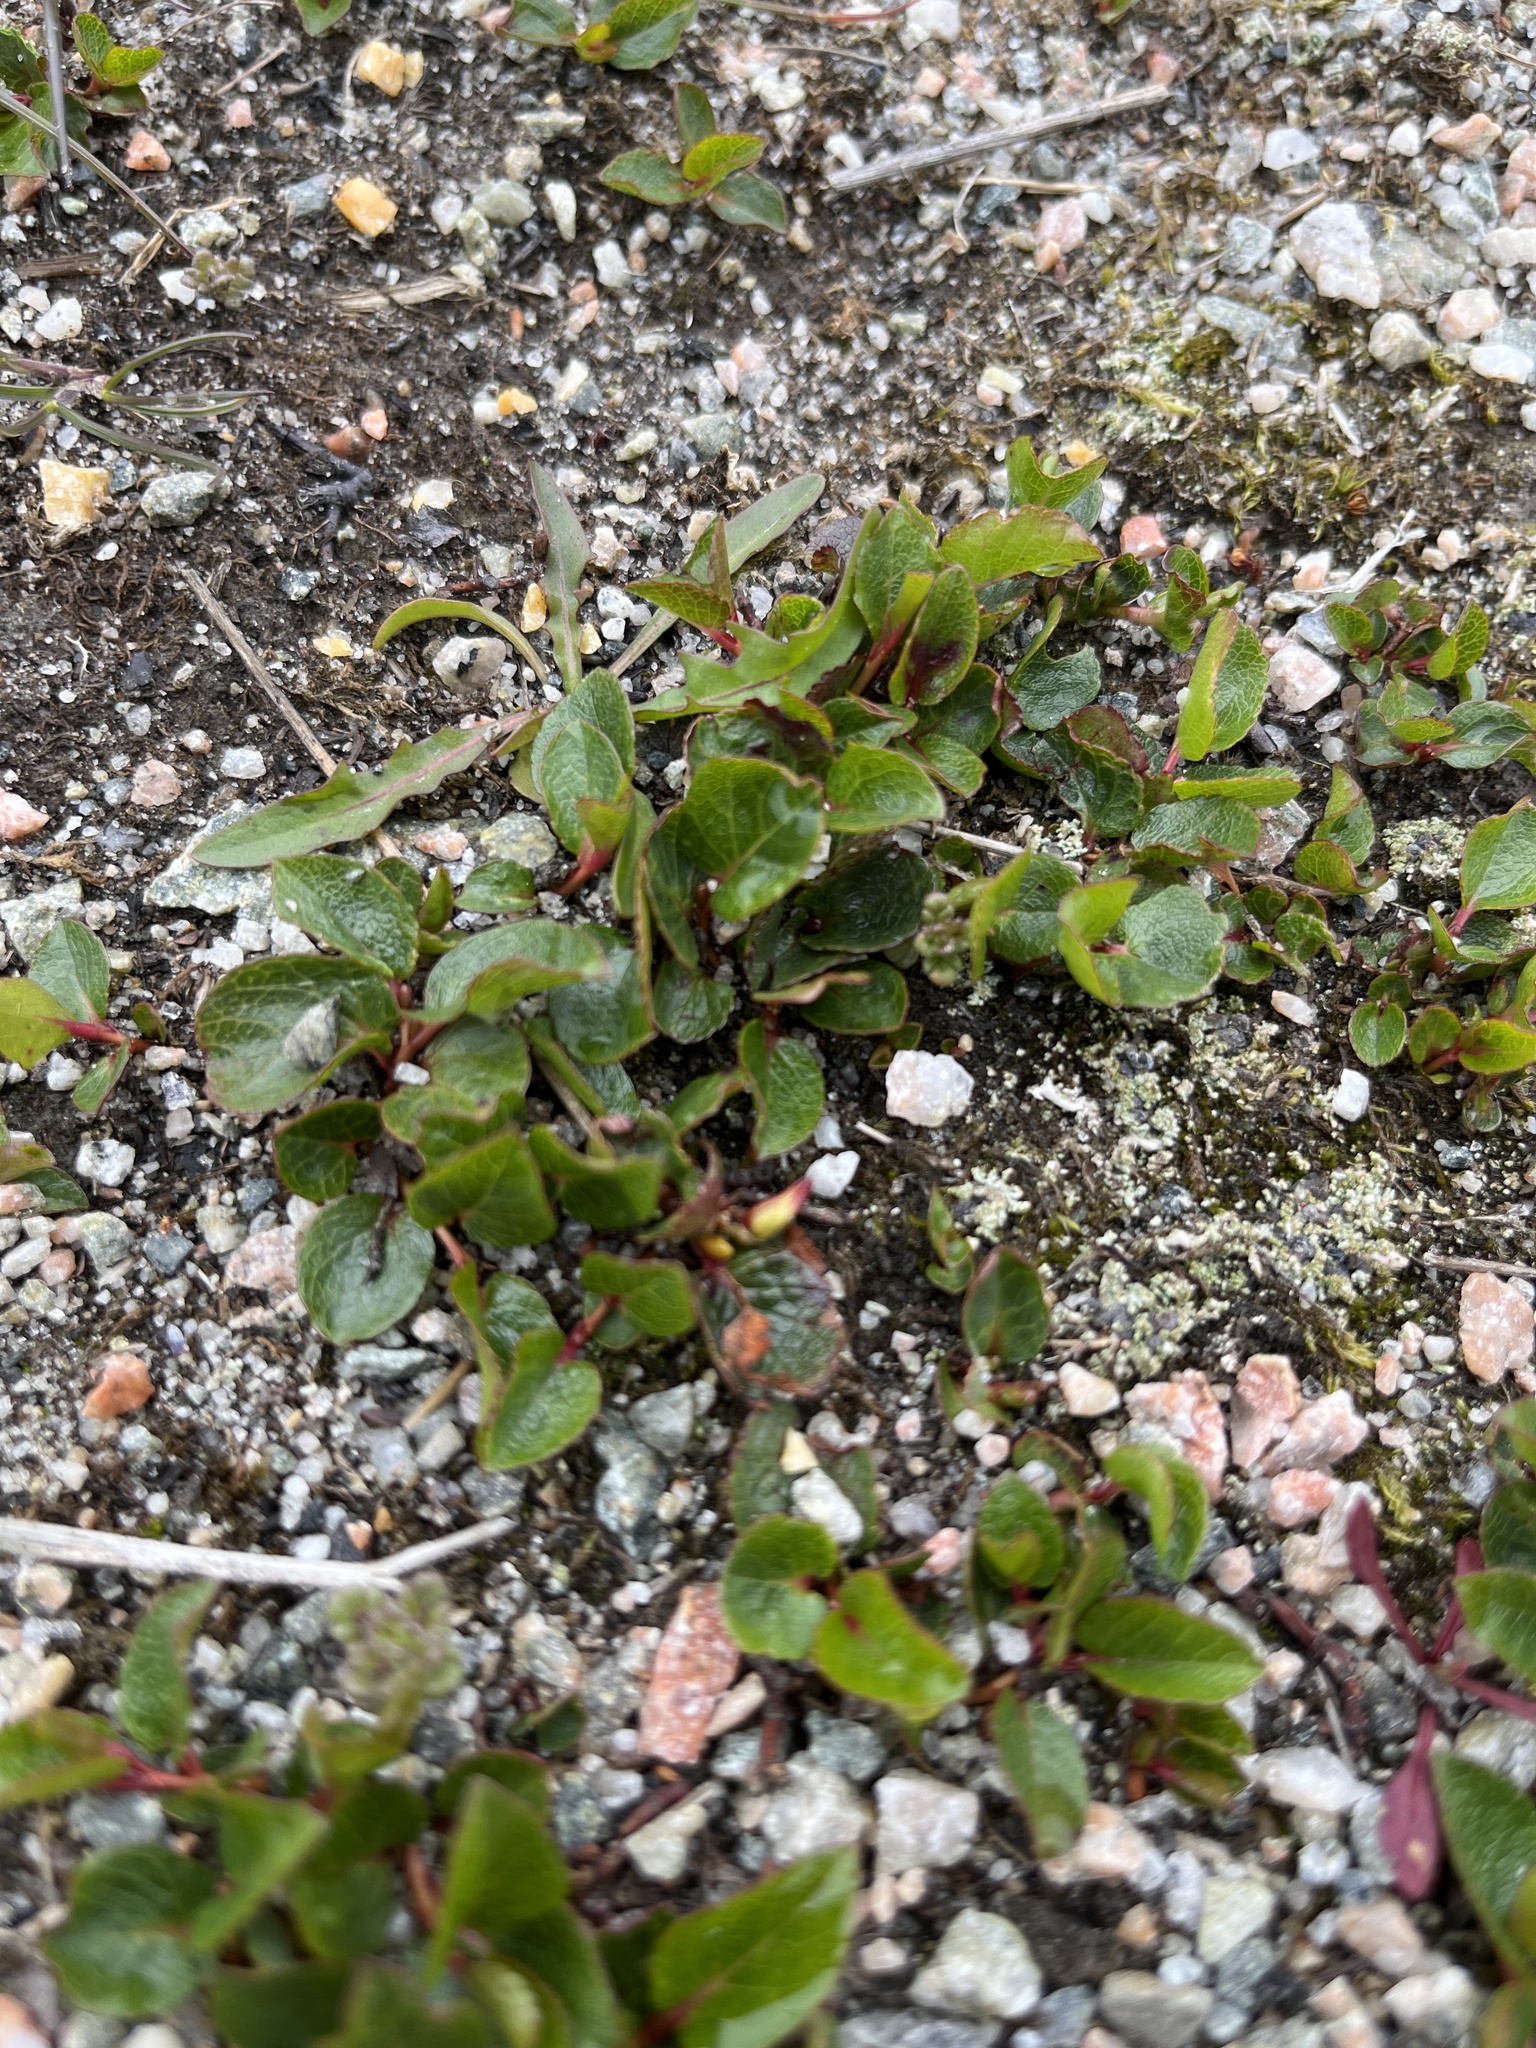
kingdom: Plantae
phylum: Tracheophyta
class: Magnoliopsida
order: Malpighiales
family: Salicaceae
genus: Salix
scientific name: Salix herbacea
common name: Dwarf willow
